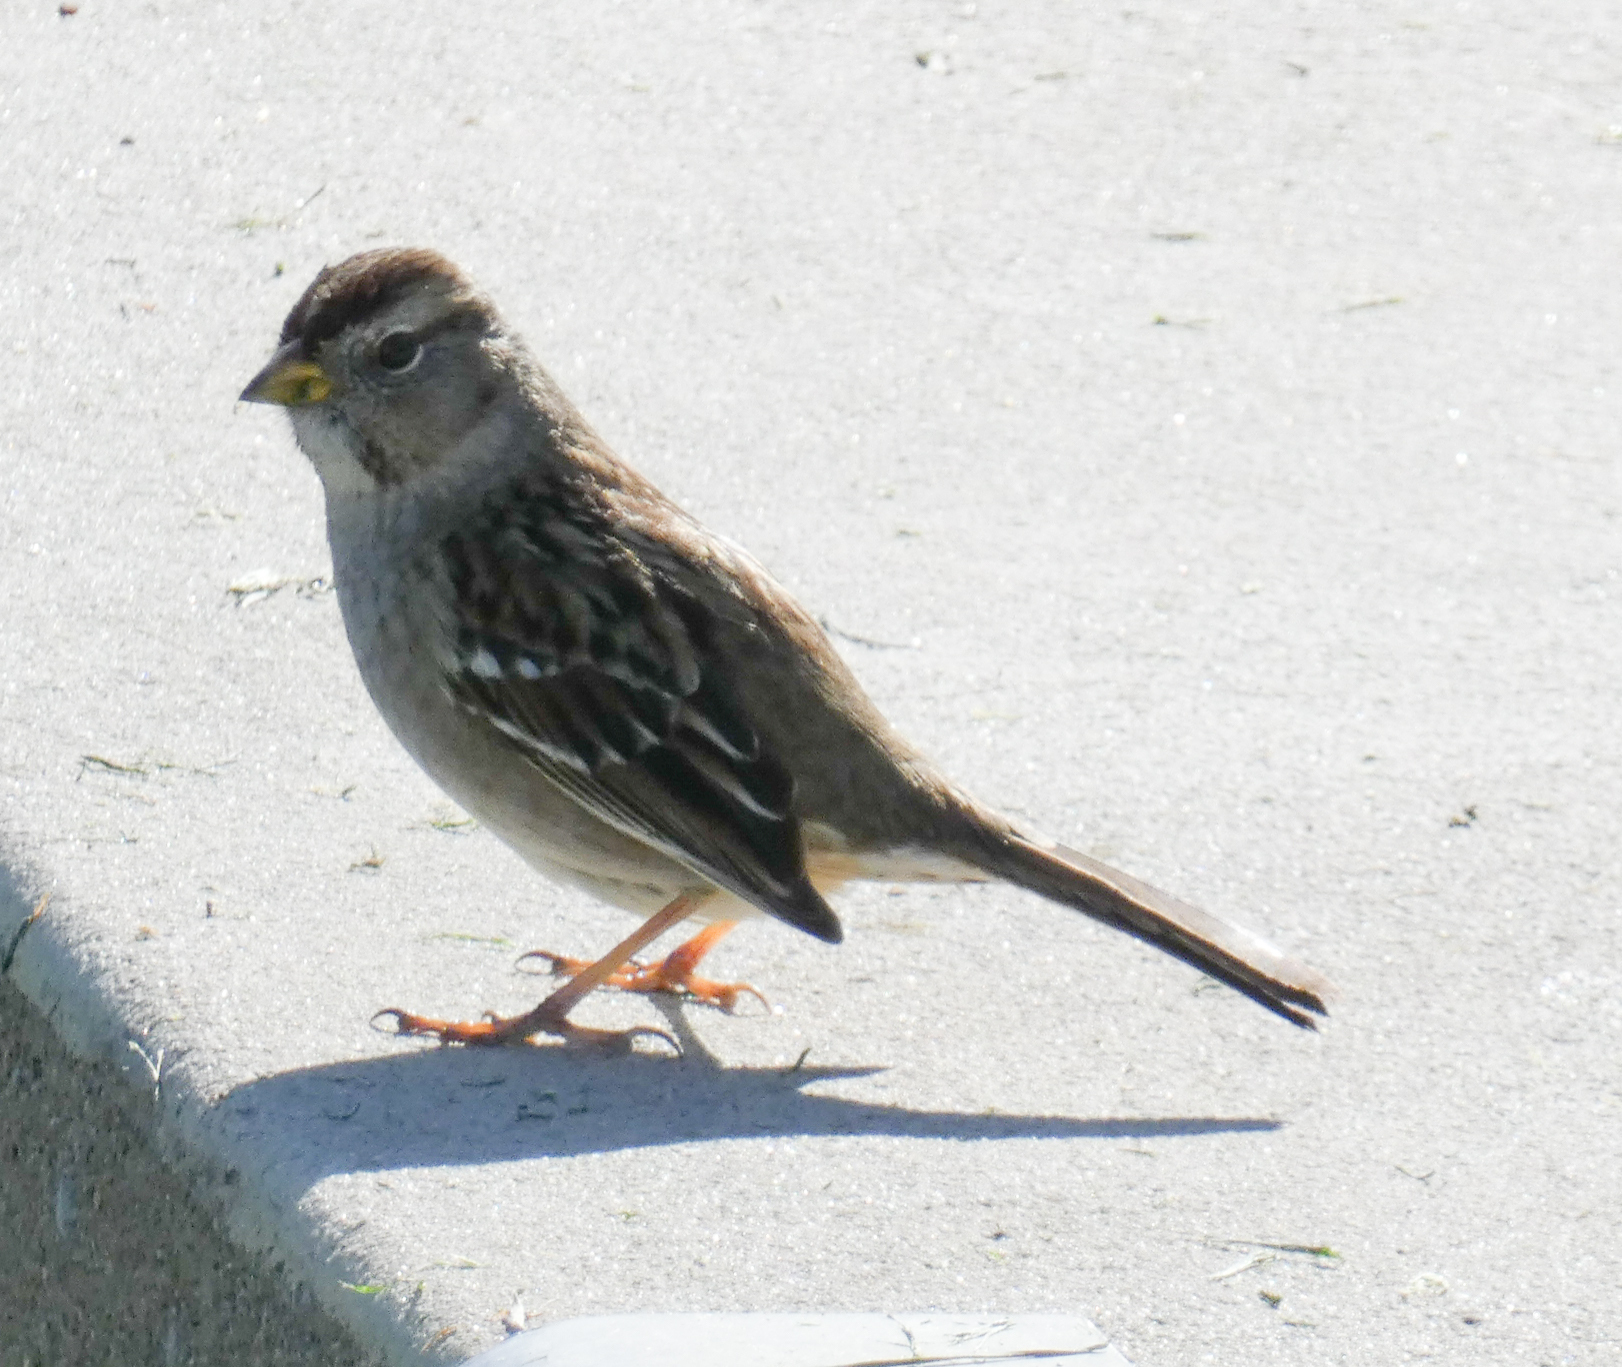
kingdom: Animalia
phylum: Chordata
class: Aves
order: Passeriformes
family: Passerellidae
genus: Zonotrichia
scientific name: Zonotrichia leucophrys
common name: White-crowned sparrow
